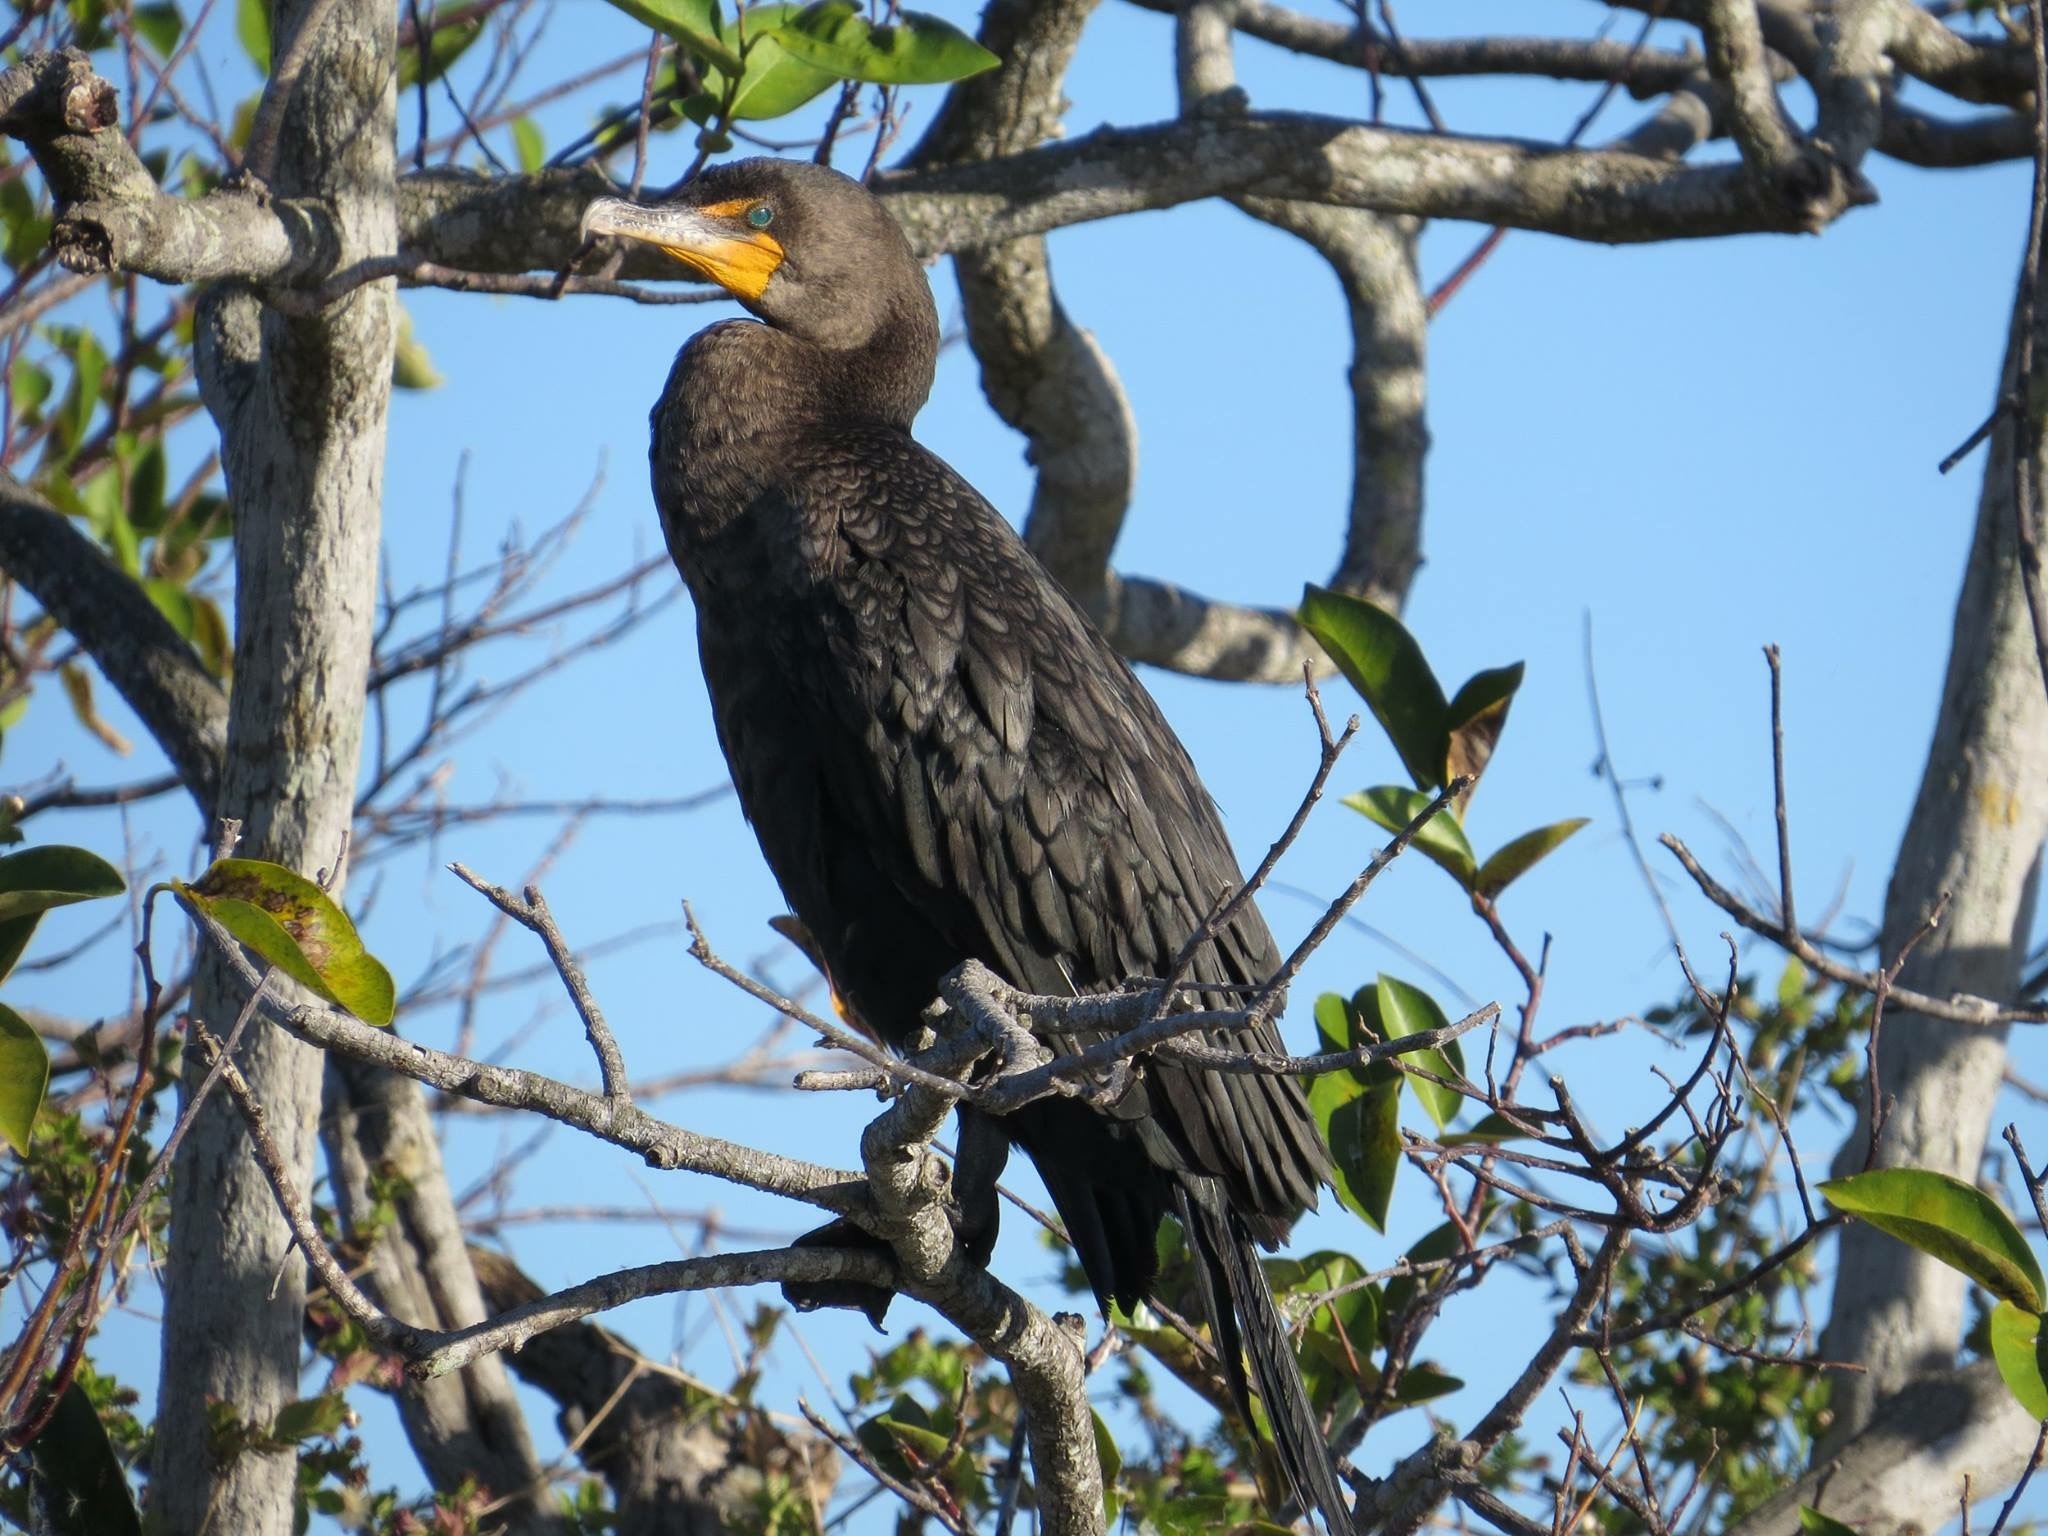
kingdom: Animalia
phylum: Chordata
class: Aves
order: Suliformes
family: Phalacrocoracidae
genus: Phalacrocorax
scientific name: Phalacrocorax auritus
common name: Double-crested cormorant
